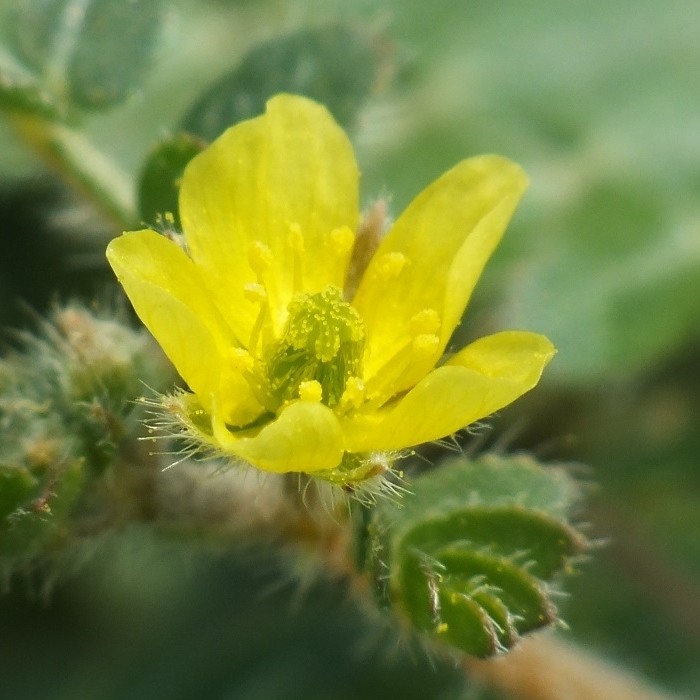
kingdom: Plantae
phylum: Tracheophyta
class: Magnoliopsida
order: Zygophyllales
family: Zygophyllaceae
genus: Tribulus
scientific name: Tribulus terrestris
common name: Puncturevine
